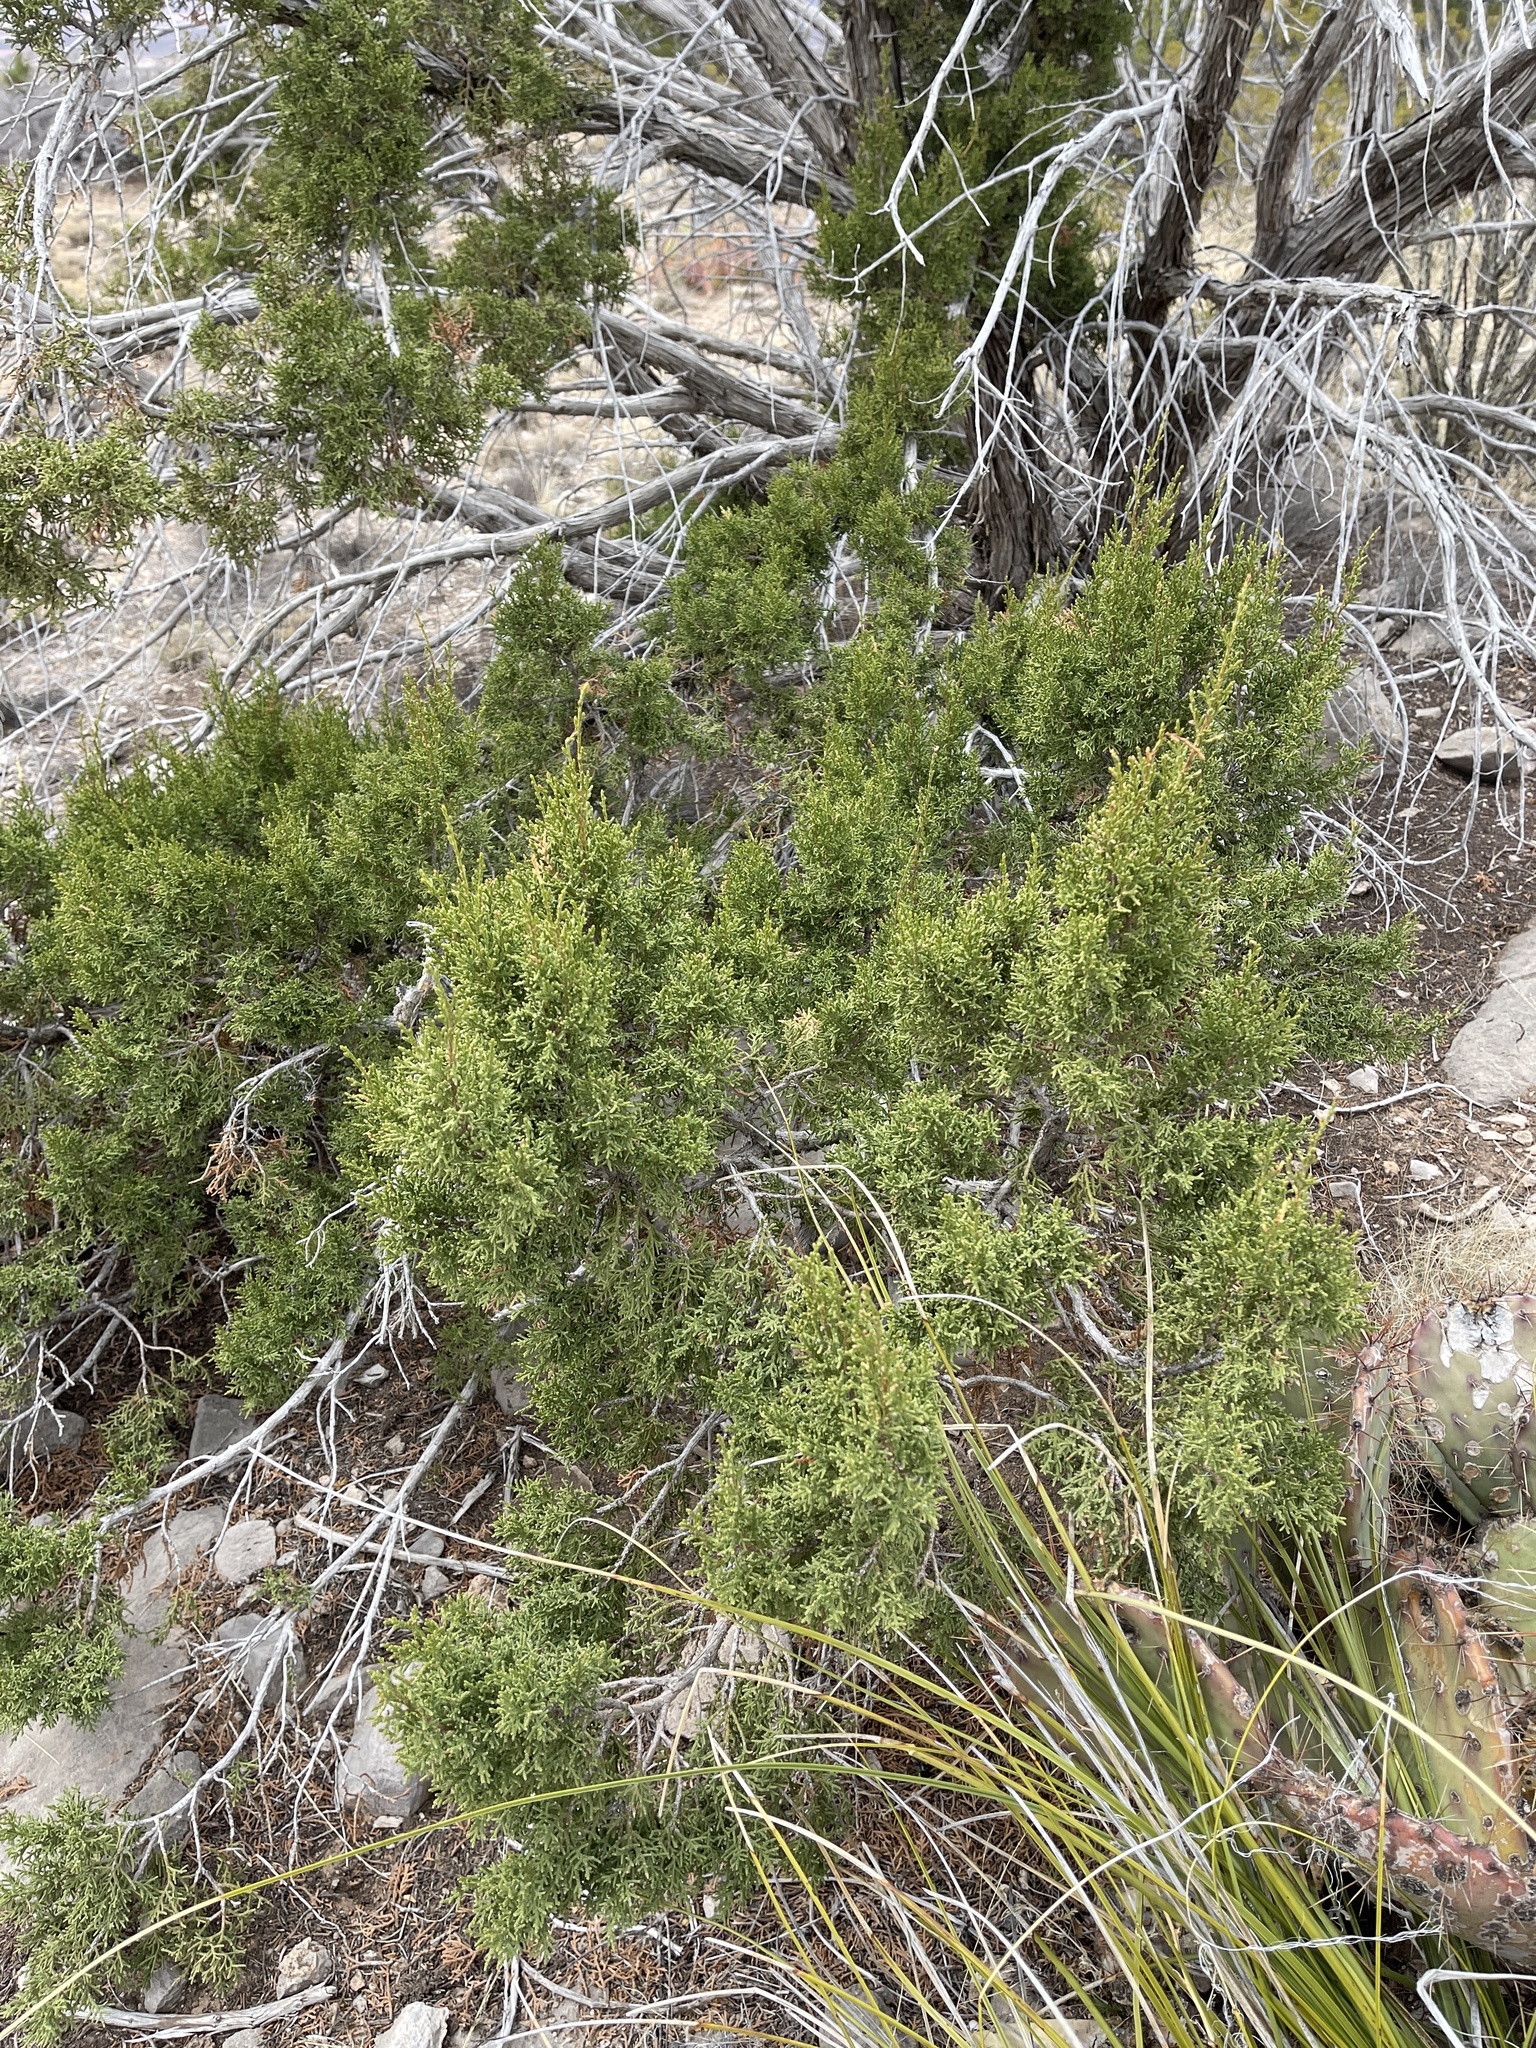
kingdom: Plantae
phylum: Tracheophyta
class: Pinopsida
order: Pinales
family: Cupressaceae
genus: Juniperus
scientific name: Juniperus monosperma
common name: One-seed juniper
